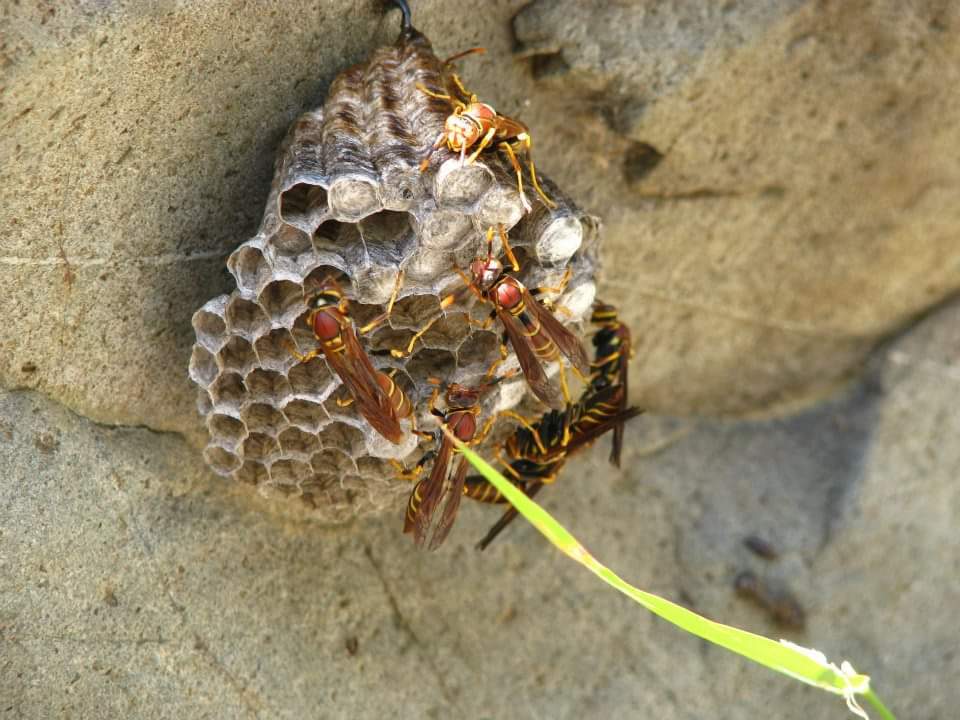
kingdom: Animalia
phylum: Arthropoda
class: Insecta
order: Hymenoptera
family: Eumenidae
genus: Polistes
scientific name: Polistes instabilis
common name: Unstable paper wasp
